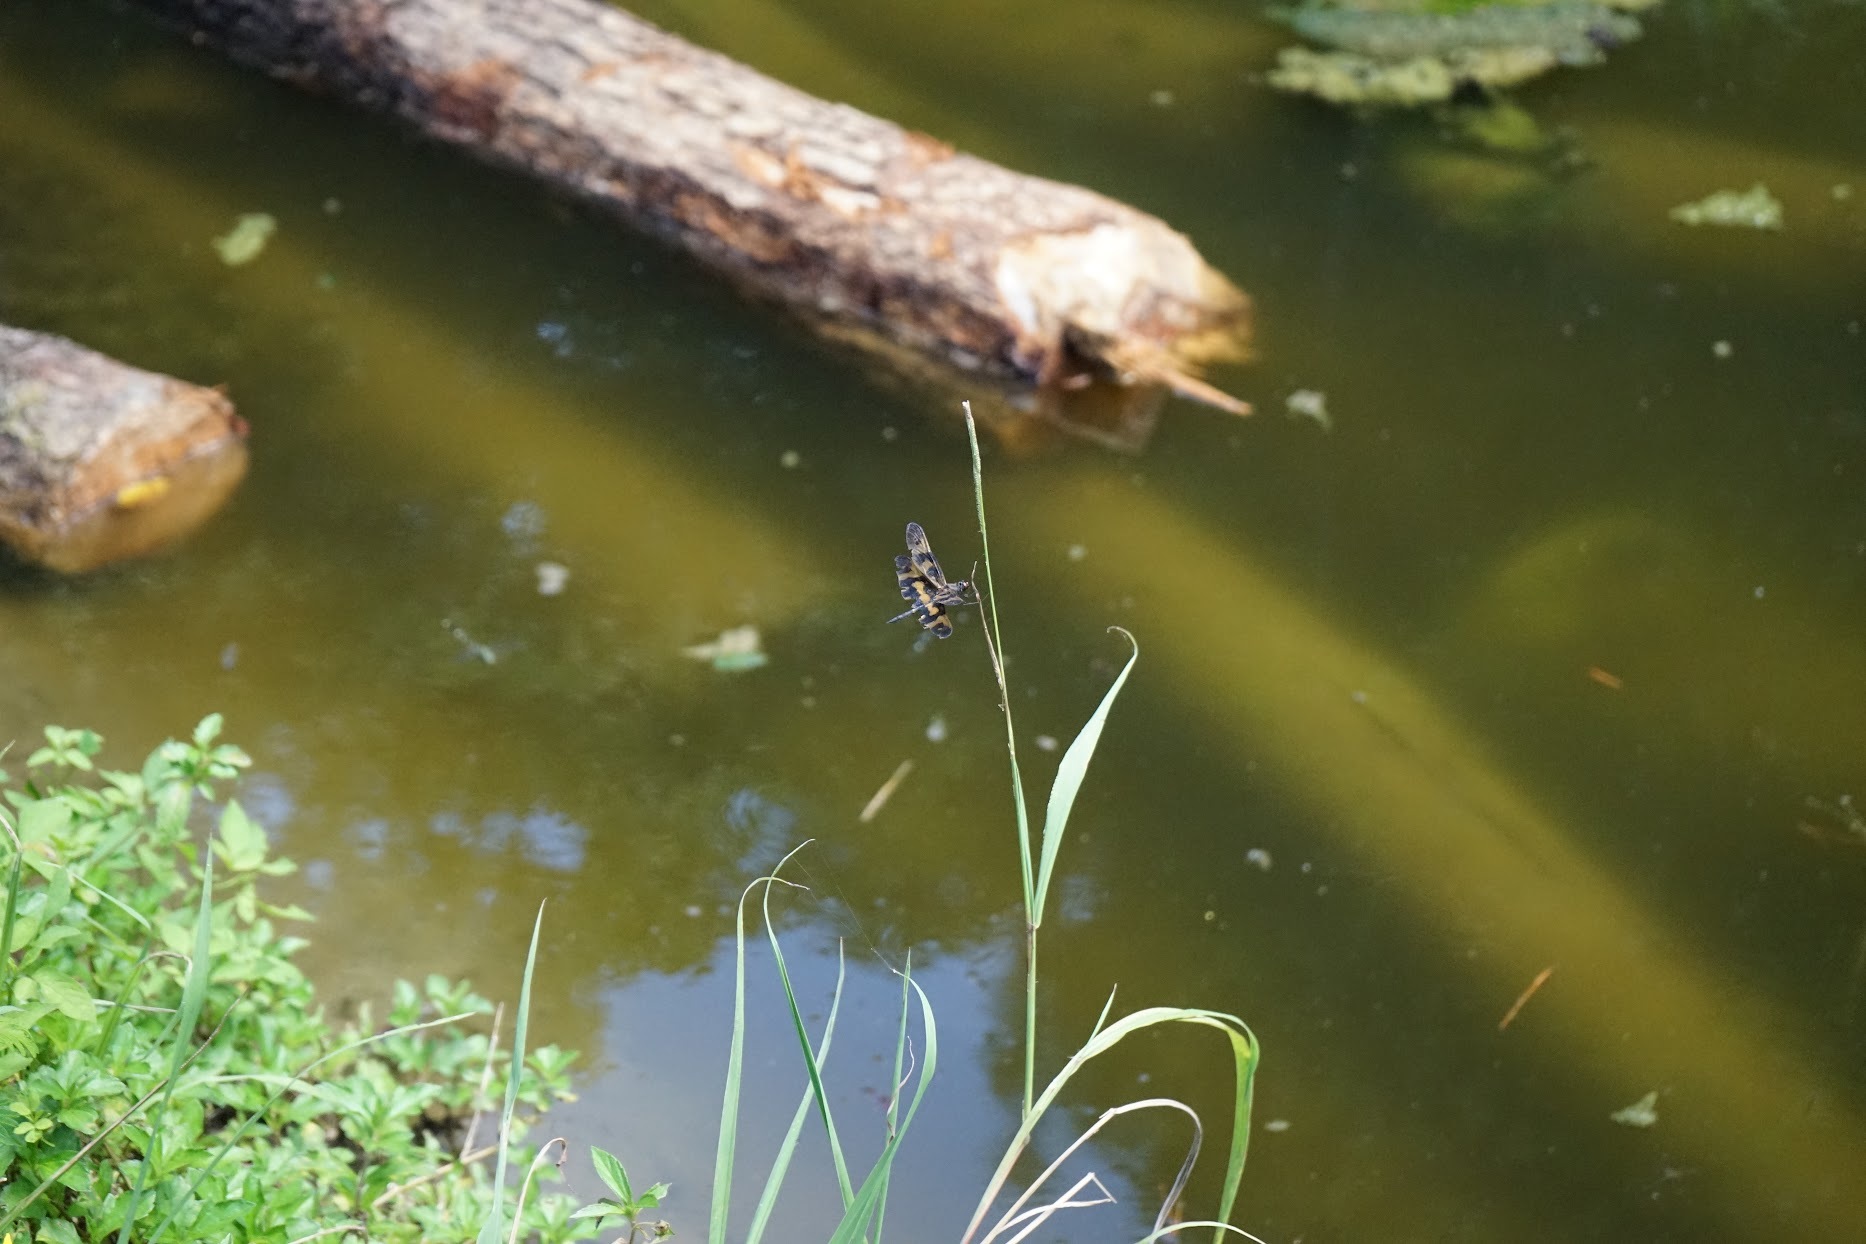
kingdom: Animalia
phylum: Arthropoda
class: Insecta
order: Odonata
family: Libellulidae
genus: Rhyothemis
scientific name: Rhyothemis variegata
